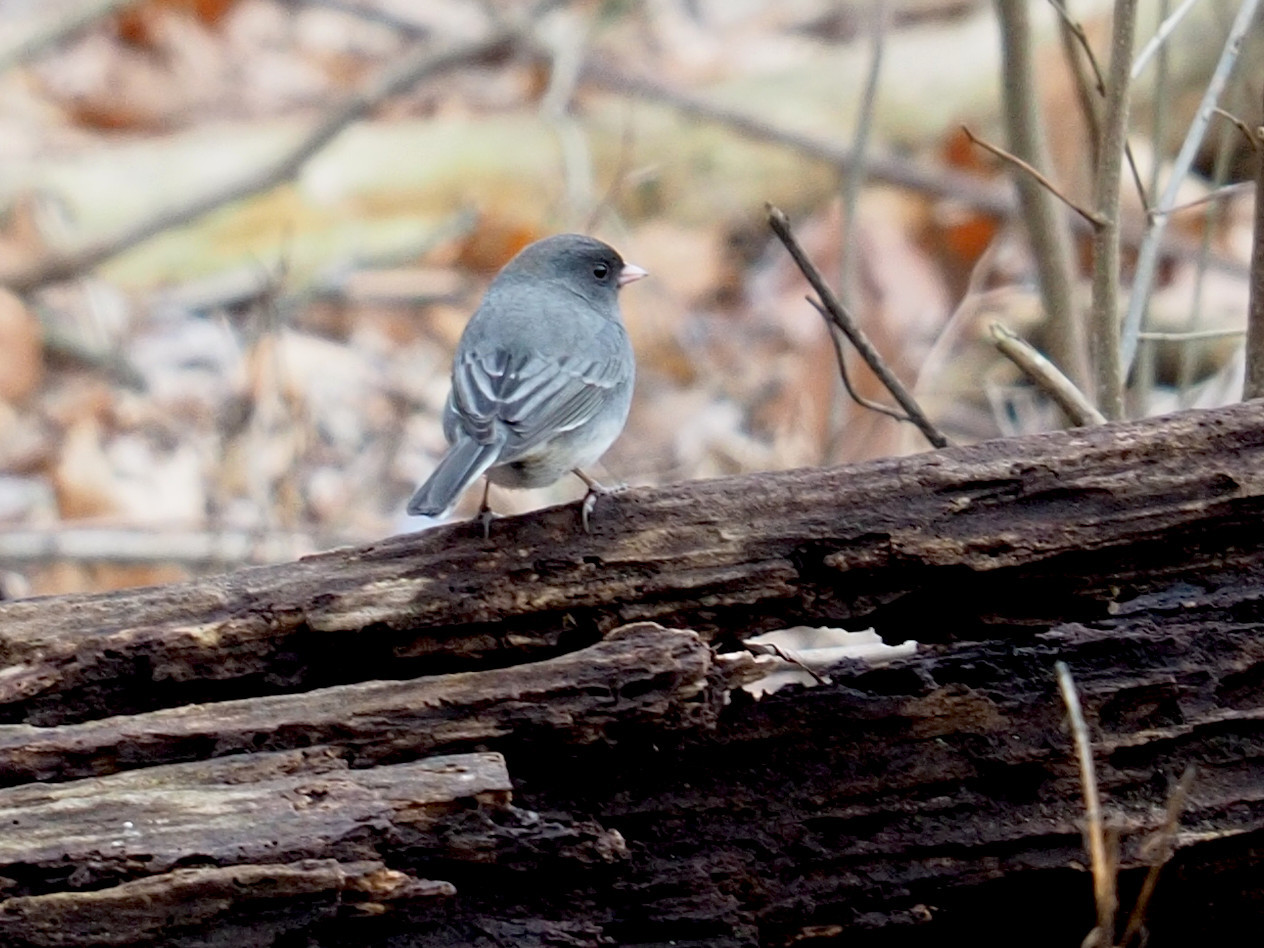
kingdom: Animalia
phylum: Chordata
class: Aves
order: Passeriformes
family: Passerellidae
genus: Junco
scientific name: Junco hyemalis
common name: Dark-eyed junco
